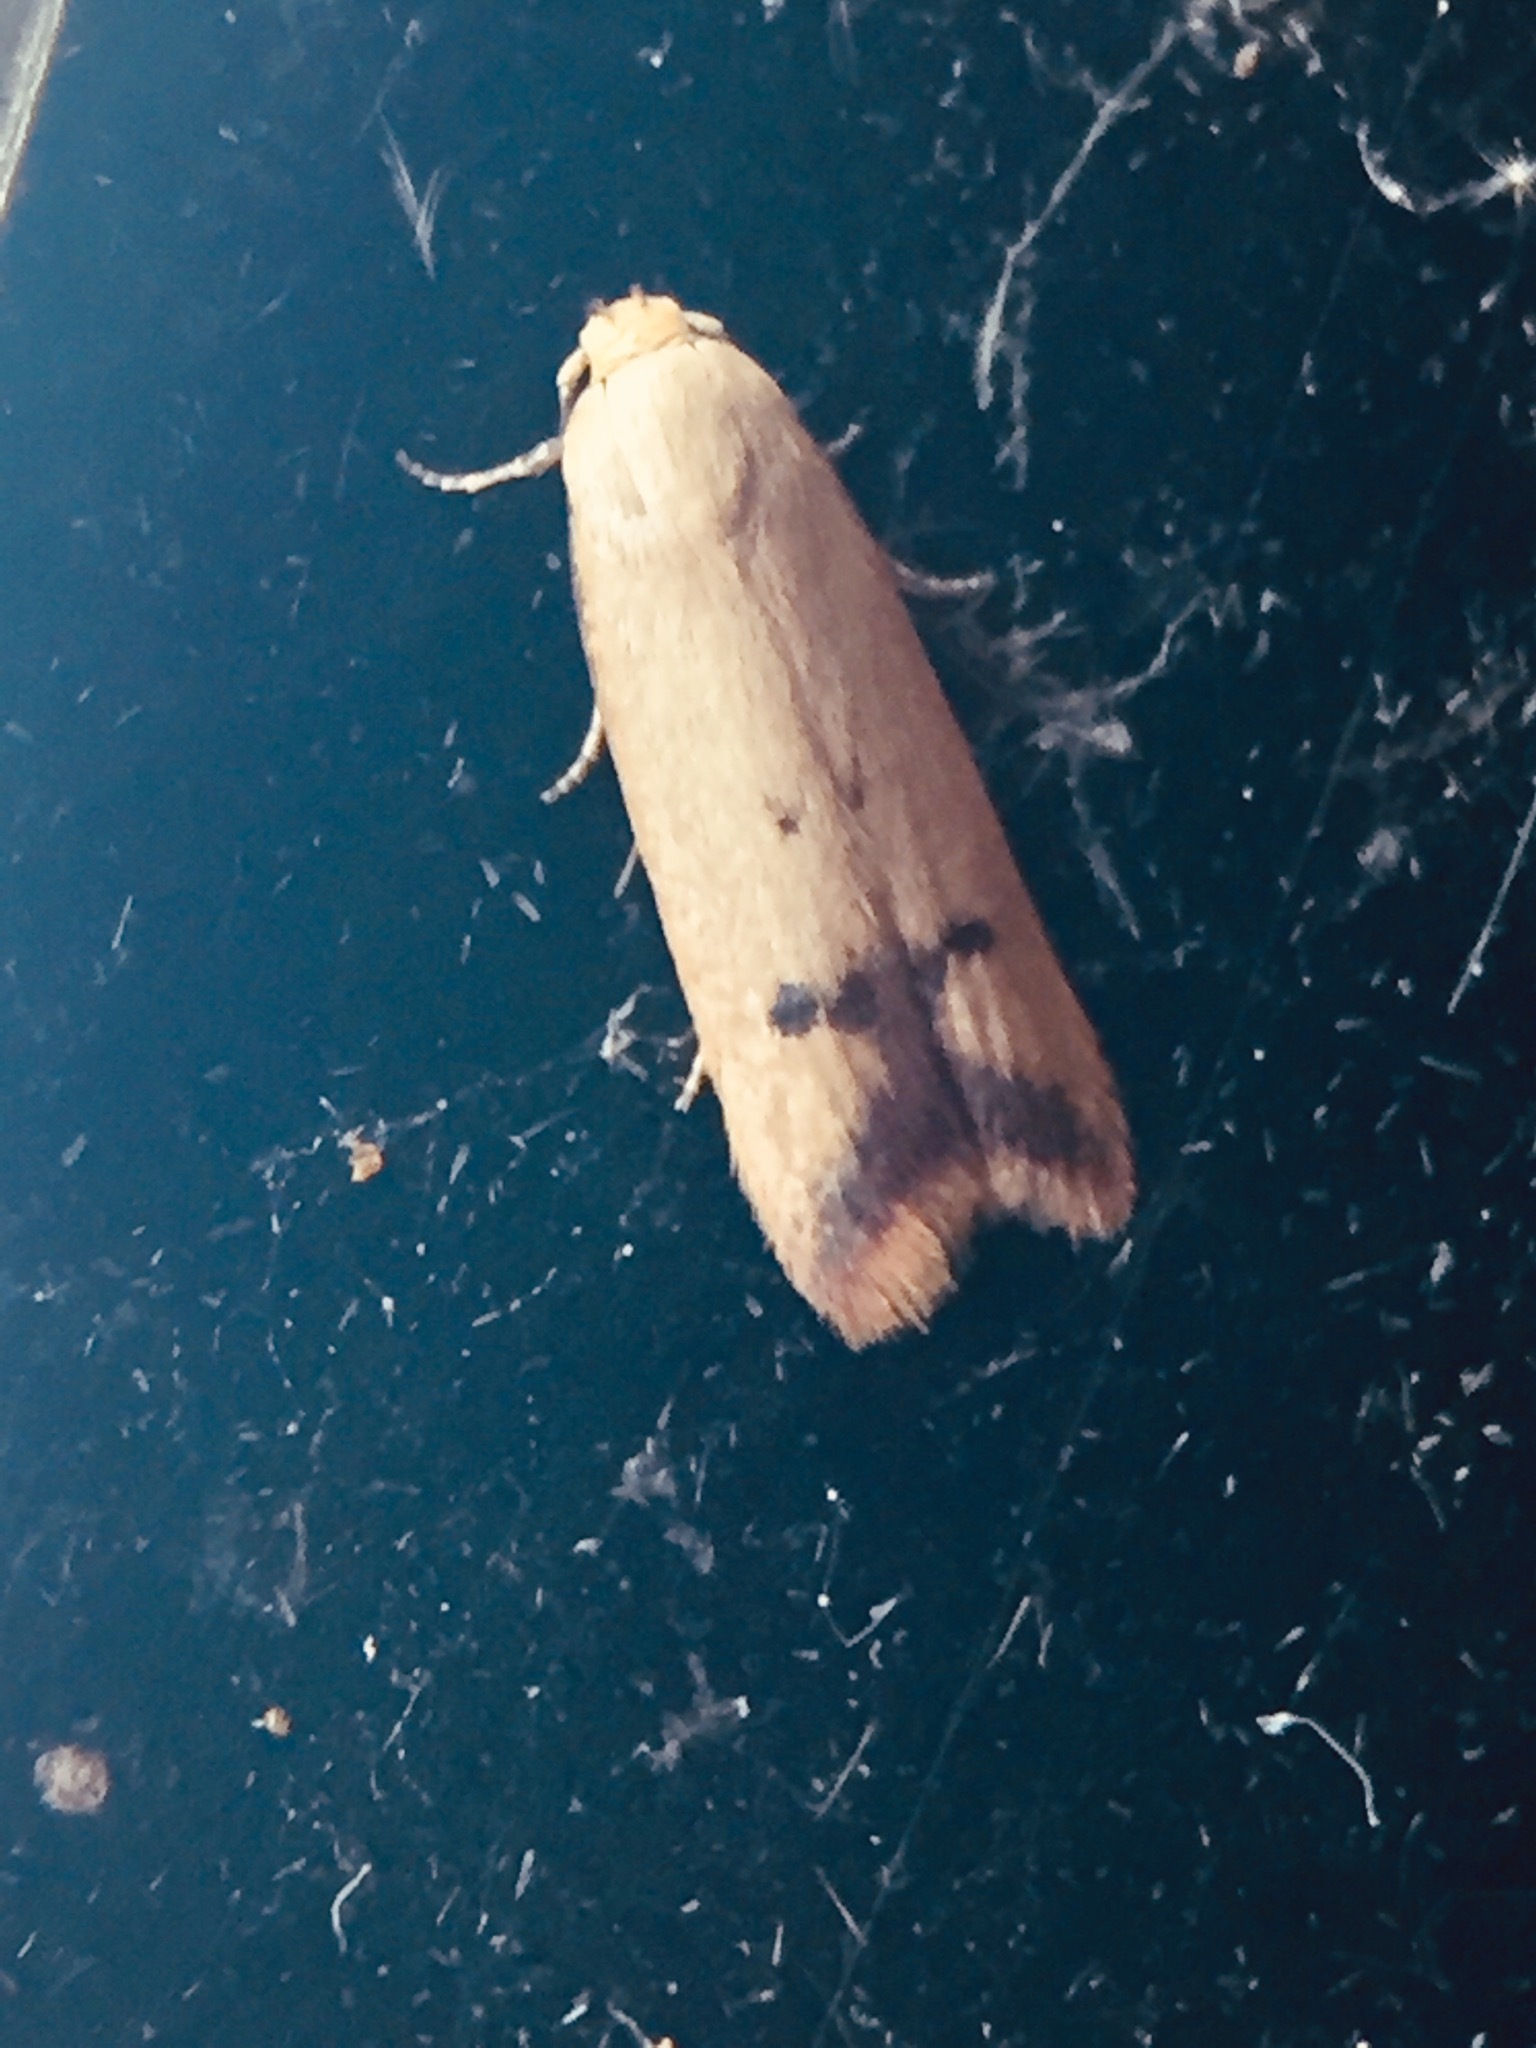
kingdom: Animalia
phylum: Arthropoda
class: Insecta
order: Lepidoptera
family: Oecophoridae
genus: Tachystola
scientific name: Tachystola hemisema
